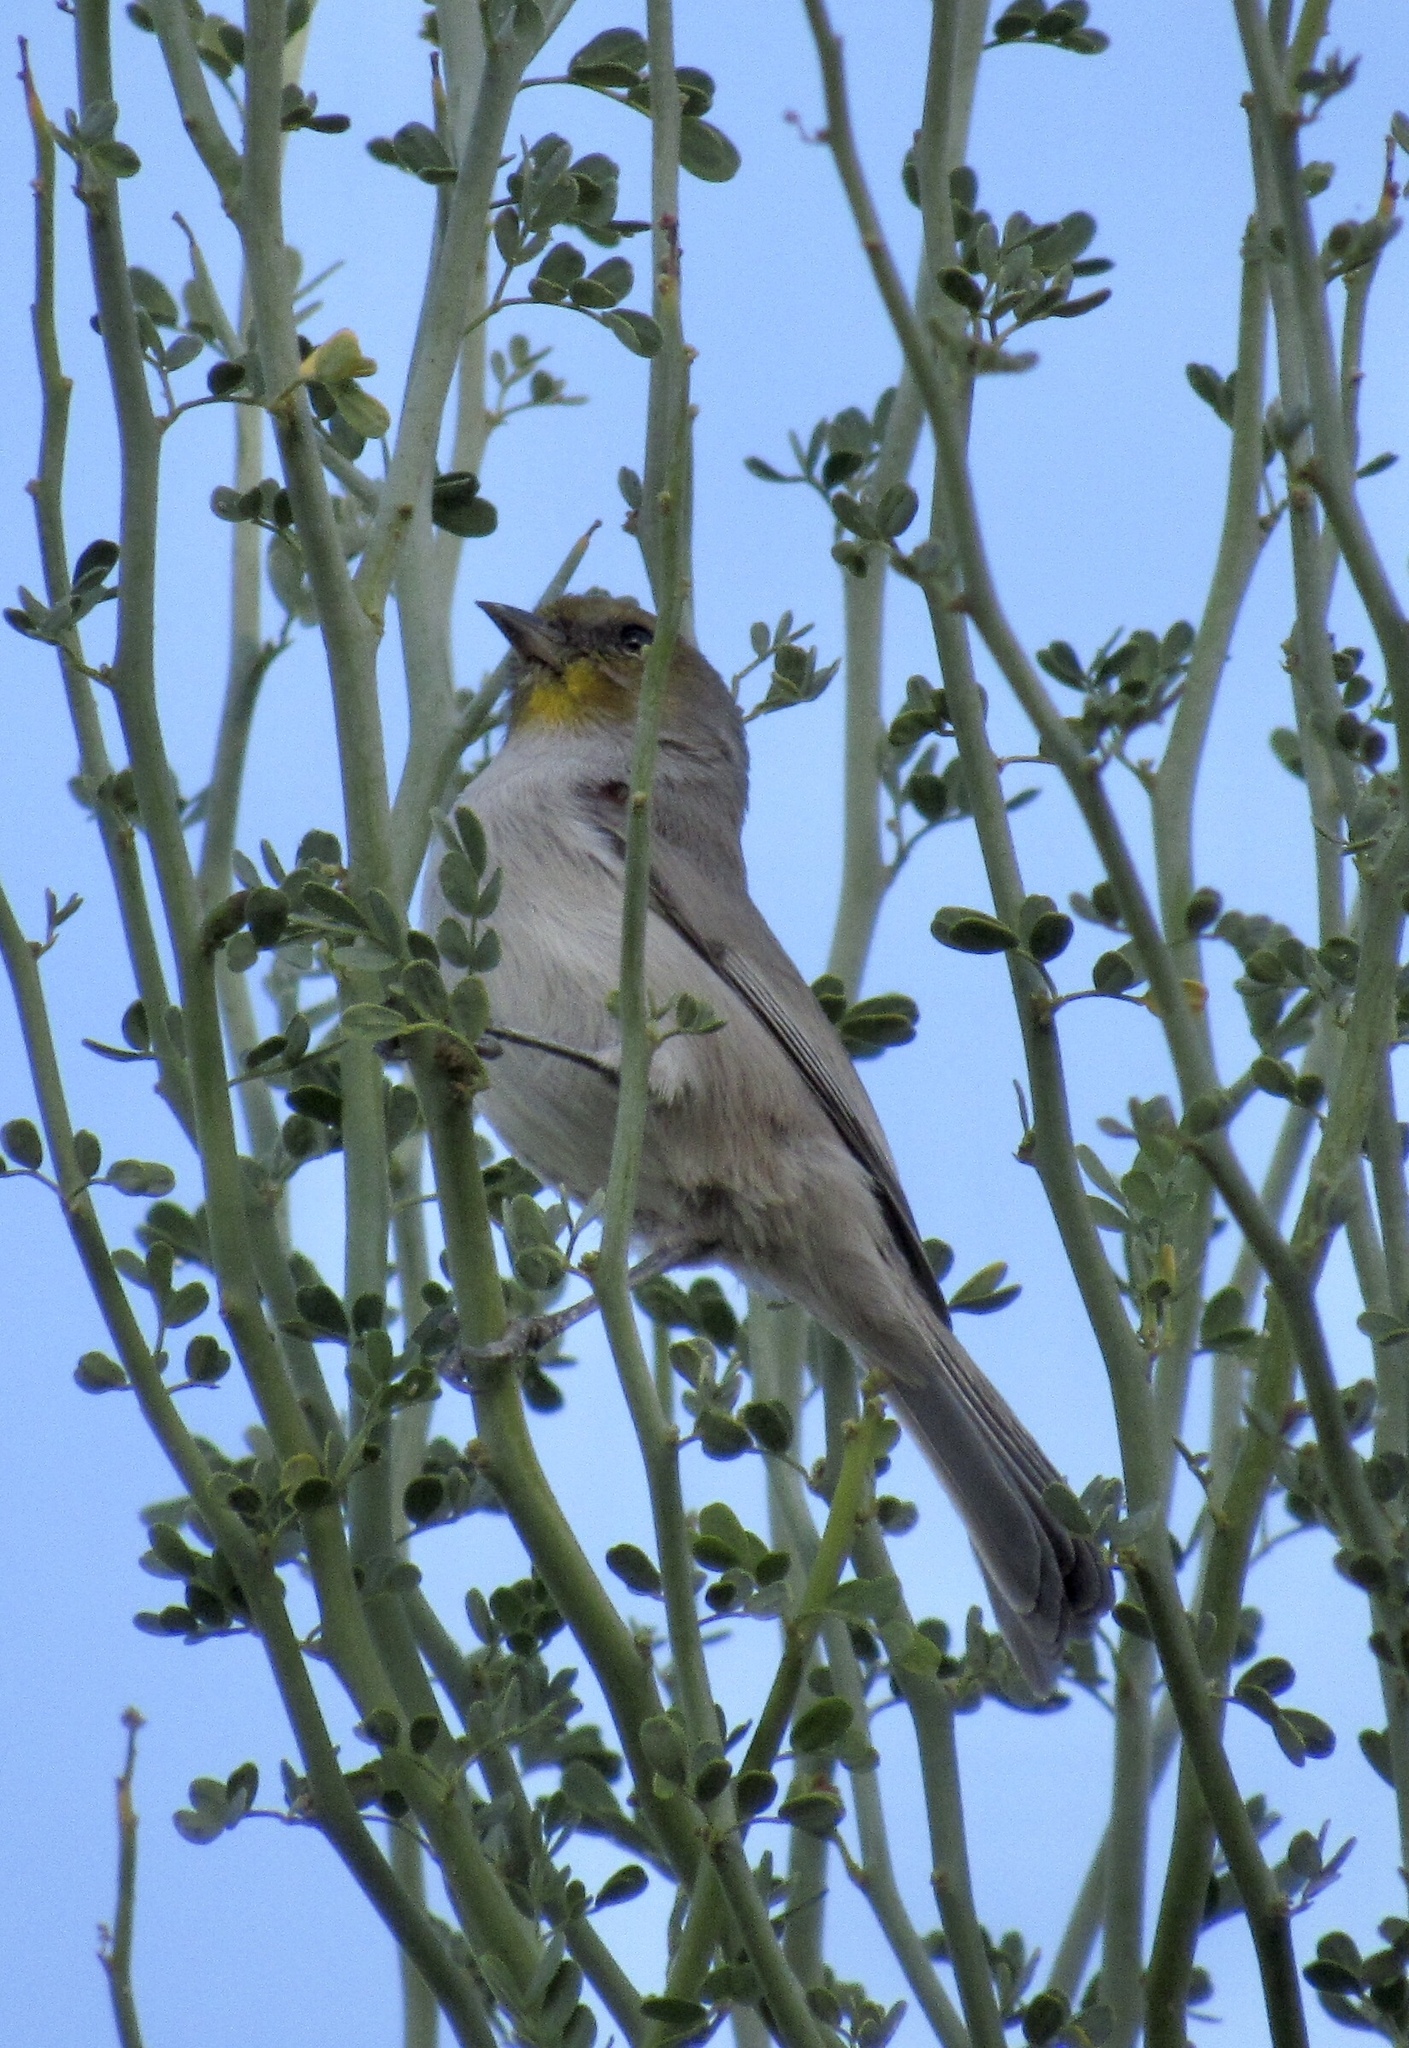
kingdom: Animalia
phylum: Chordata
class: Aves
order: Passeriformes
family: Remizidae
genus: Auriparus
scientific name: Auriparus flaviceps
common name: Verdin
